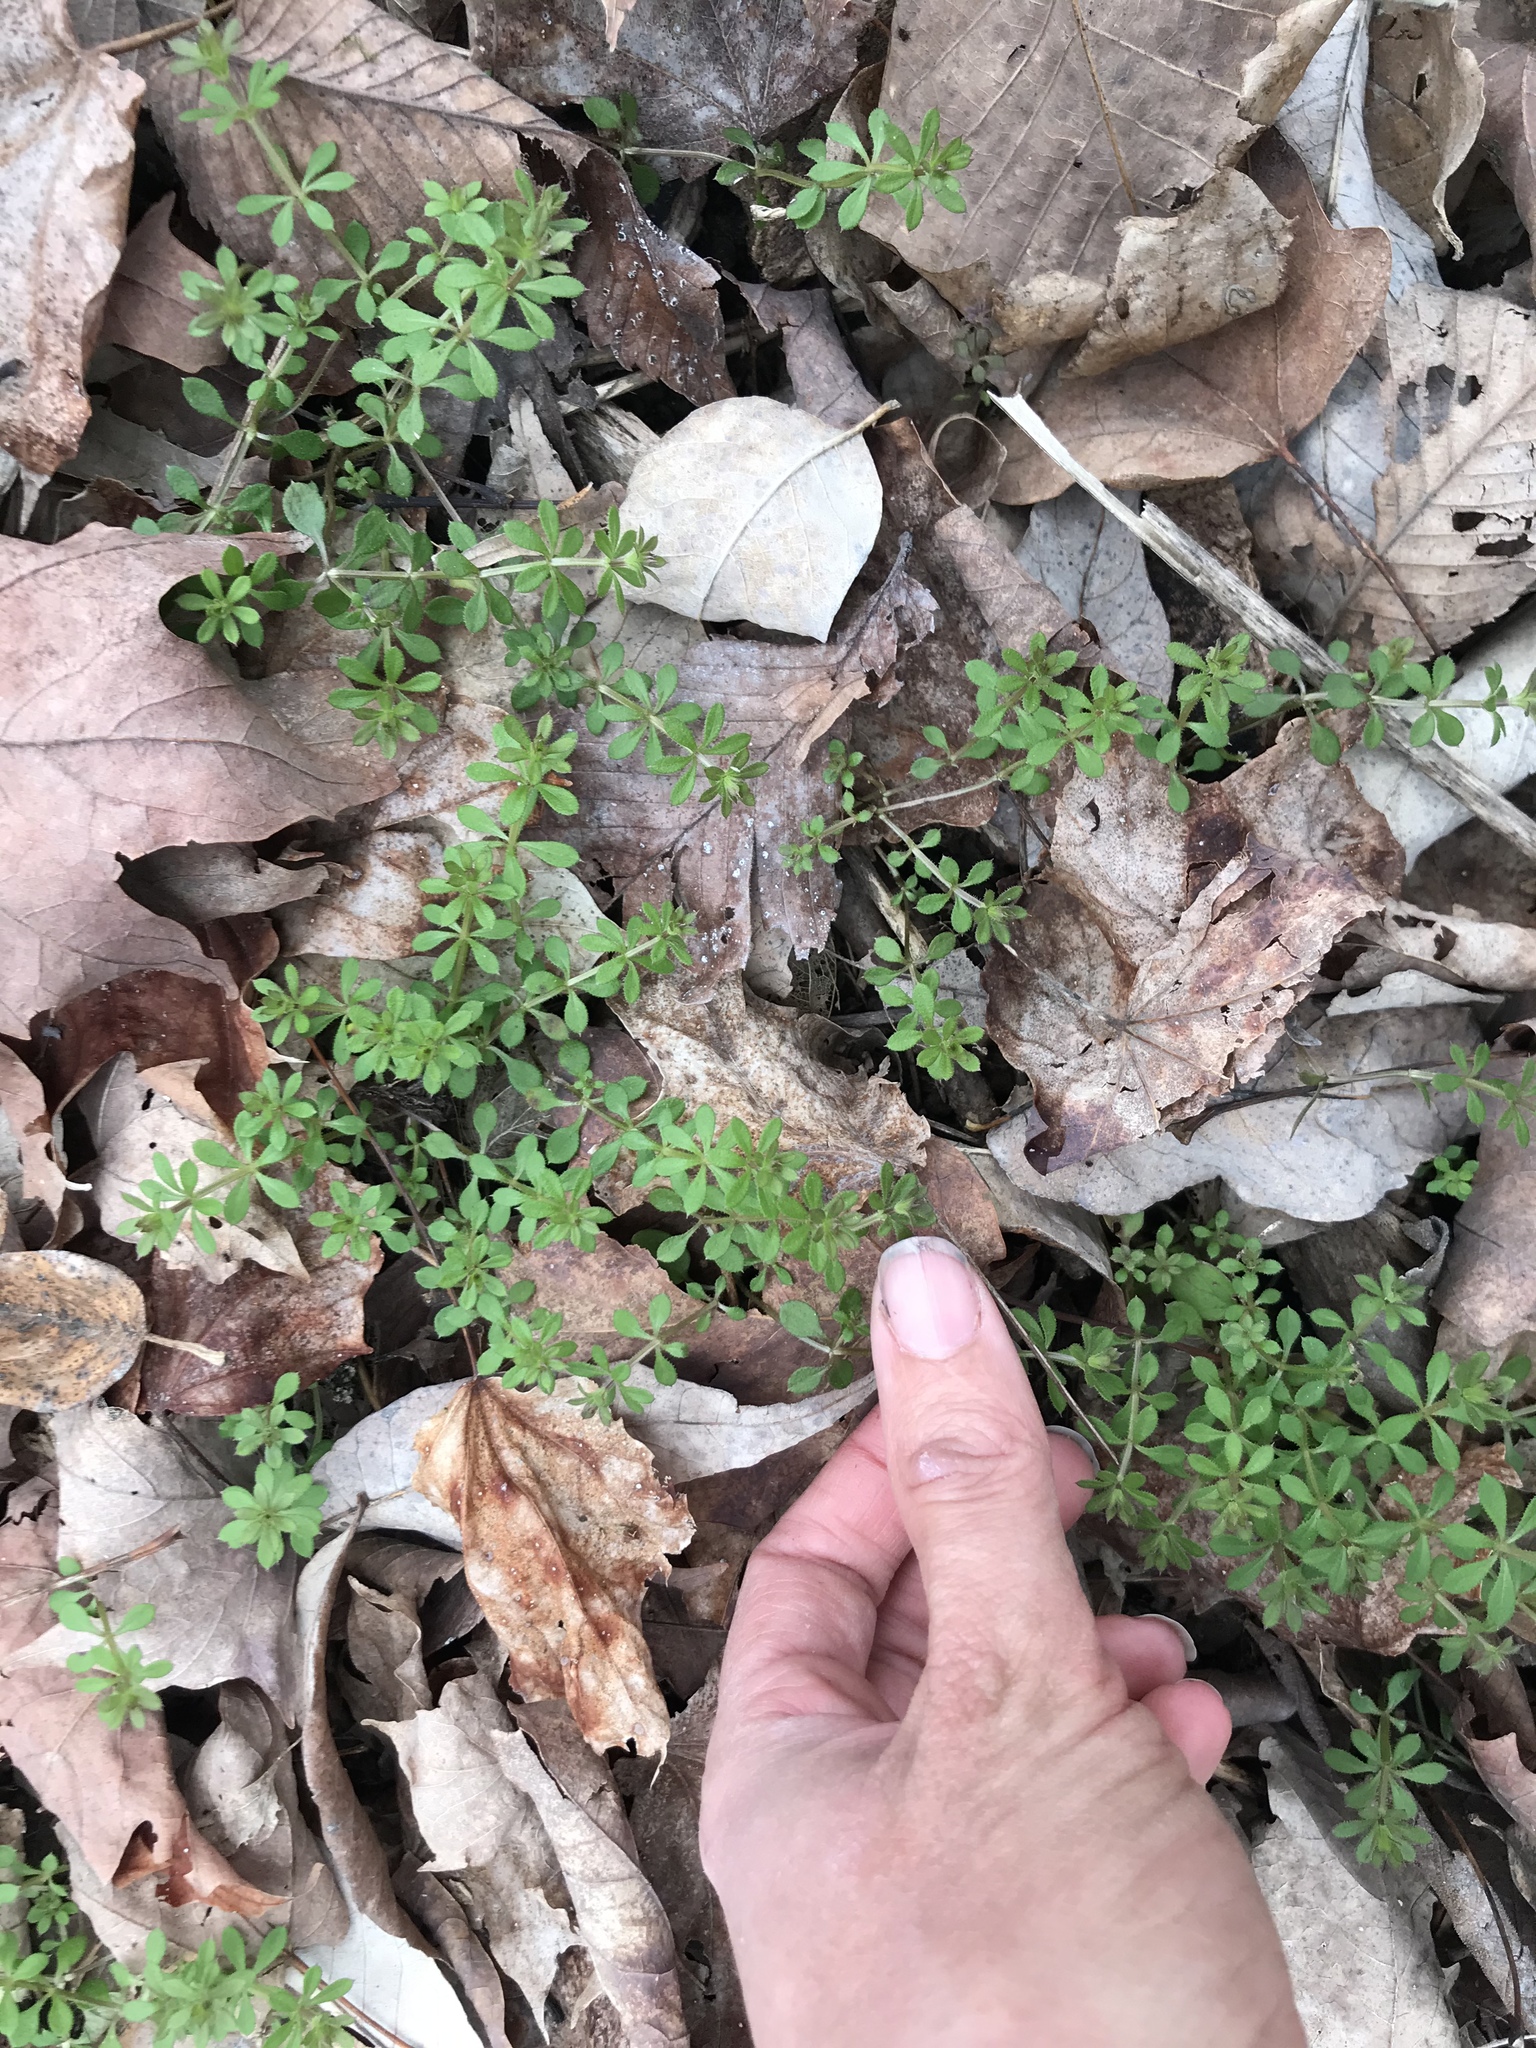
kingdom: Plantae
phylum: Tracheophyta
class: Magnoliopsida
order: Gentianales
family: Rubiaceae
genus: Galium
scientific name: Galium aparine
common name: Cleavers
